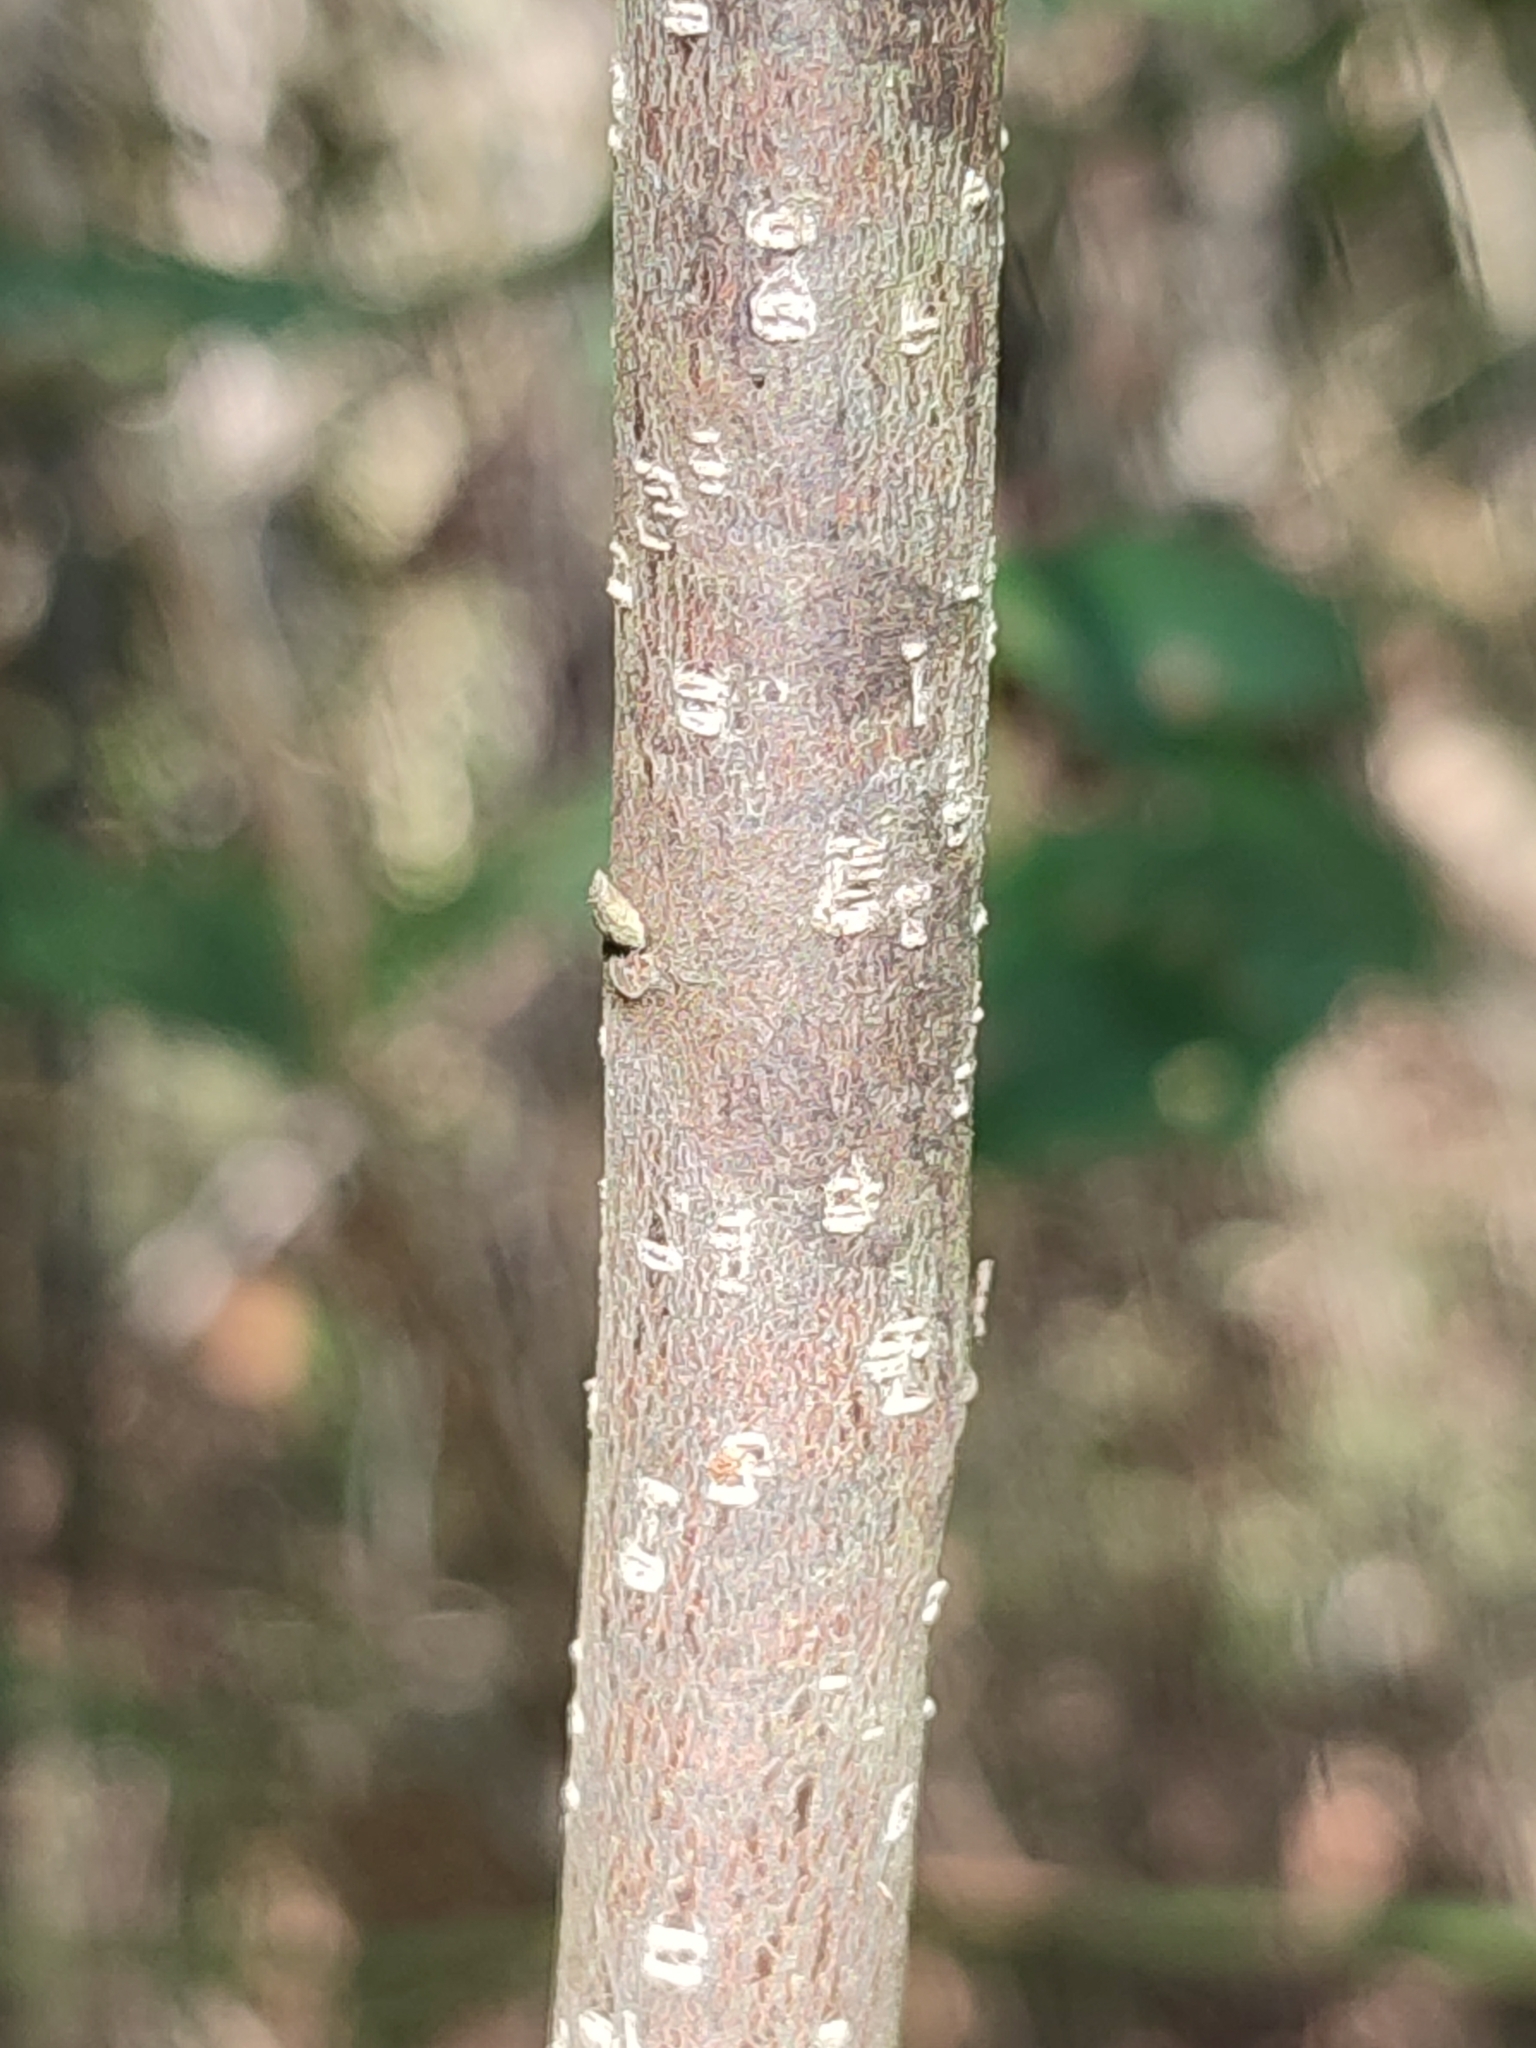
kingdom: Plantae
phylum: Tracheophyta
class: Magnoliopsida
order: Rosales
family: Rhamnaceae
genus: Frangula
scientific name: Frangula alnus
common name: Alder buckthorn
